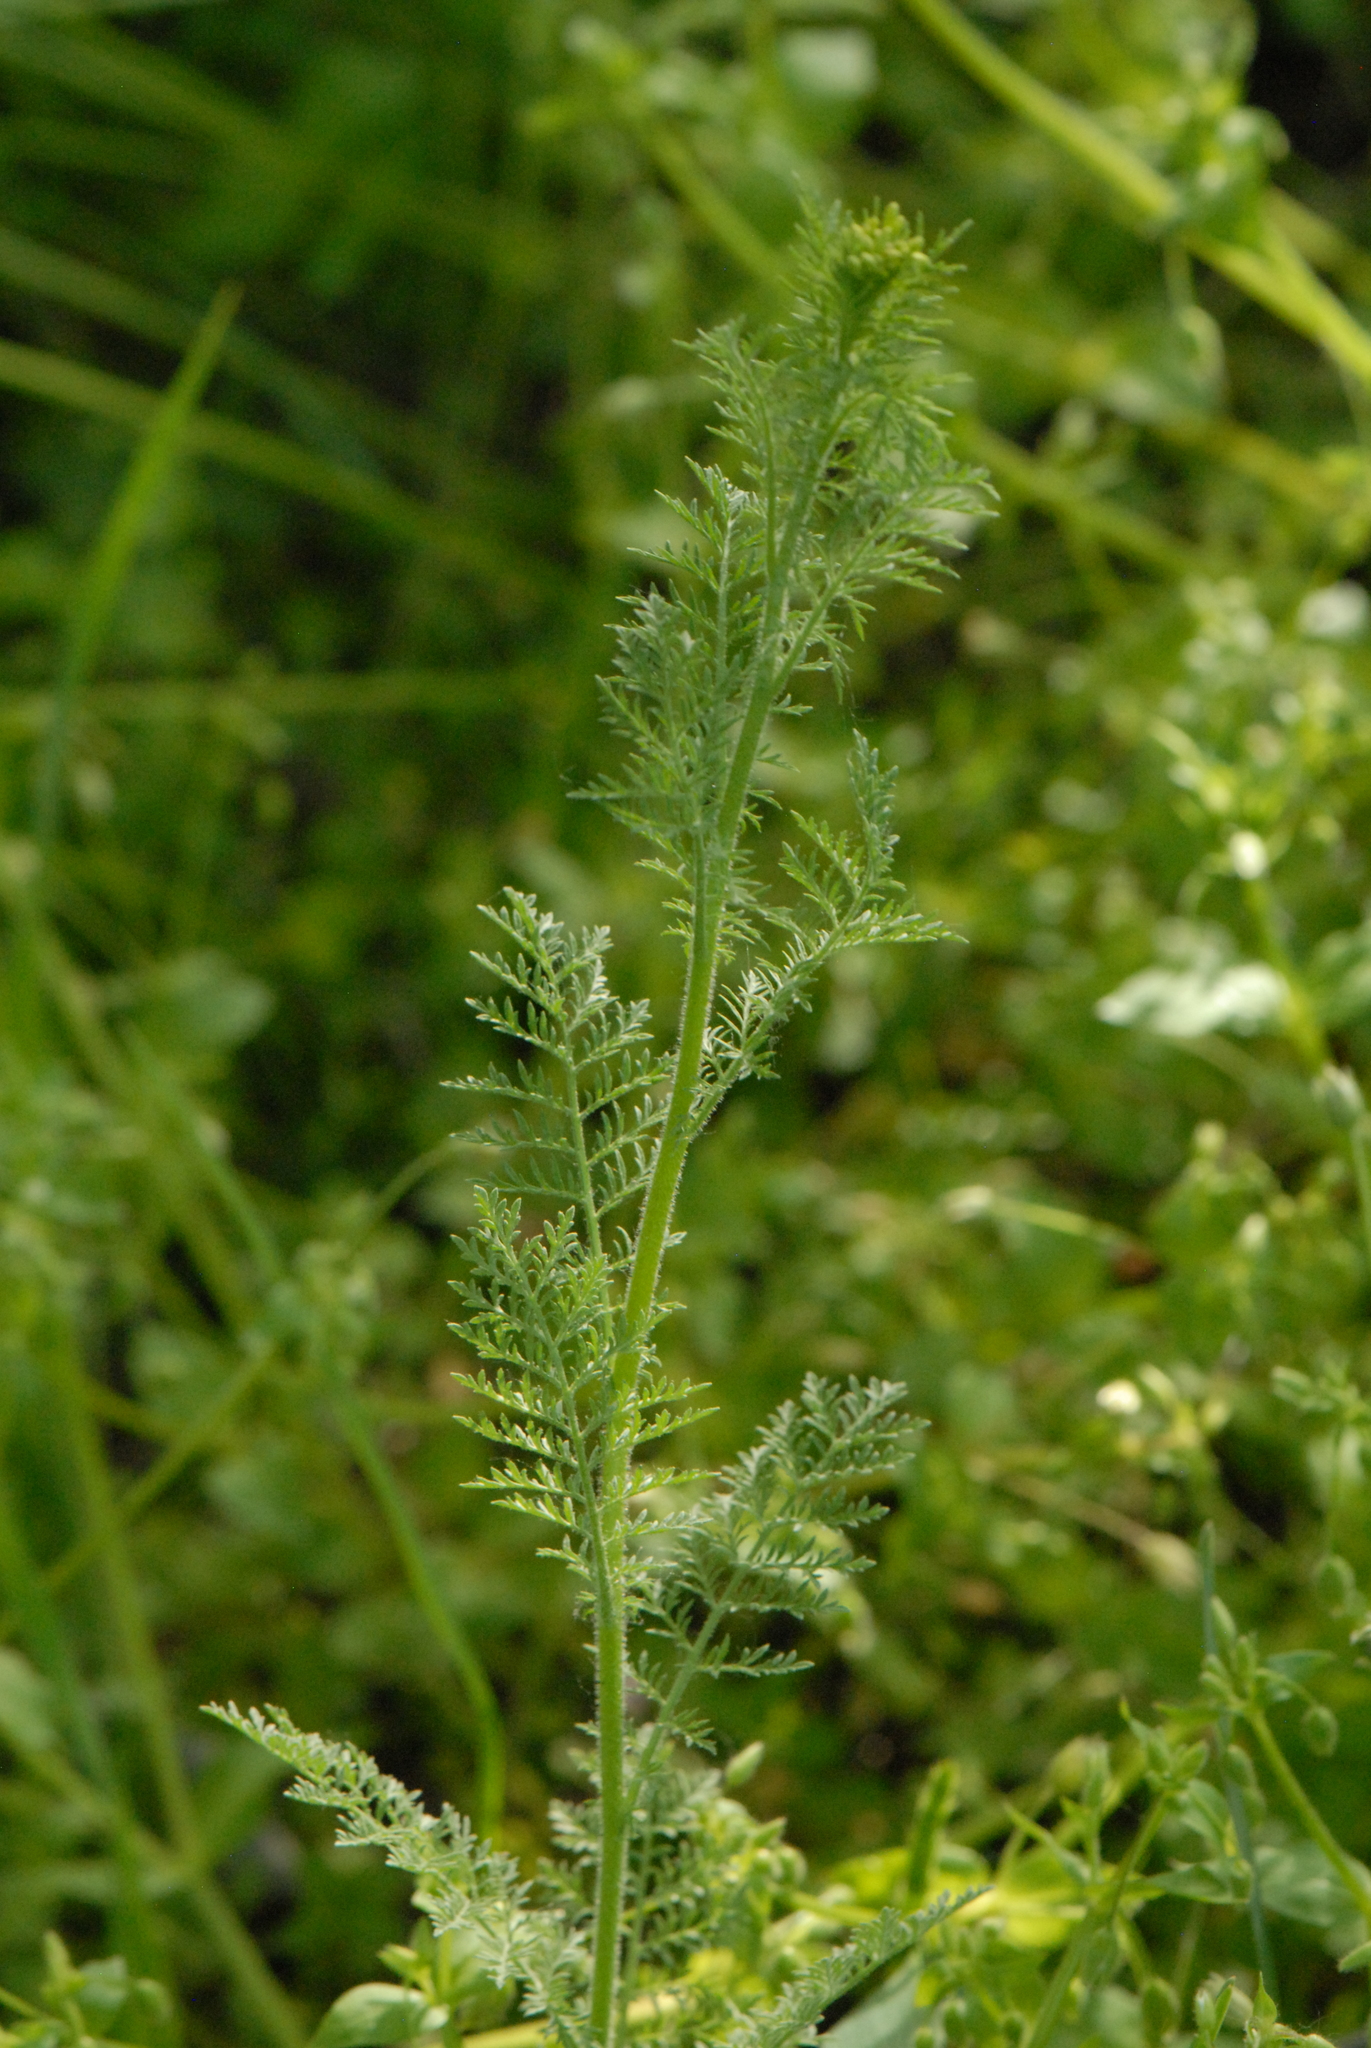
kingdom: Plantae
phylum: Tracheophyta
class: Magnoliopsida
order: Brassicales
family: Brassicaceae
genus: Descurainia
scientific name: Descurainia sophia
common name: Flixweed
